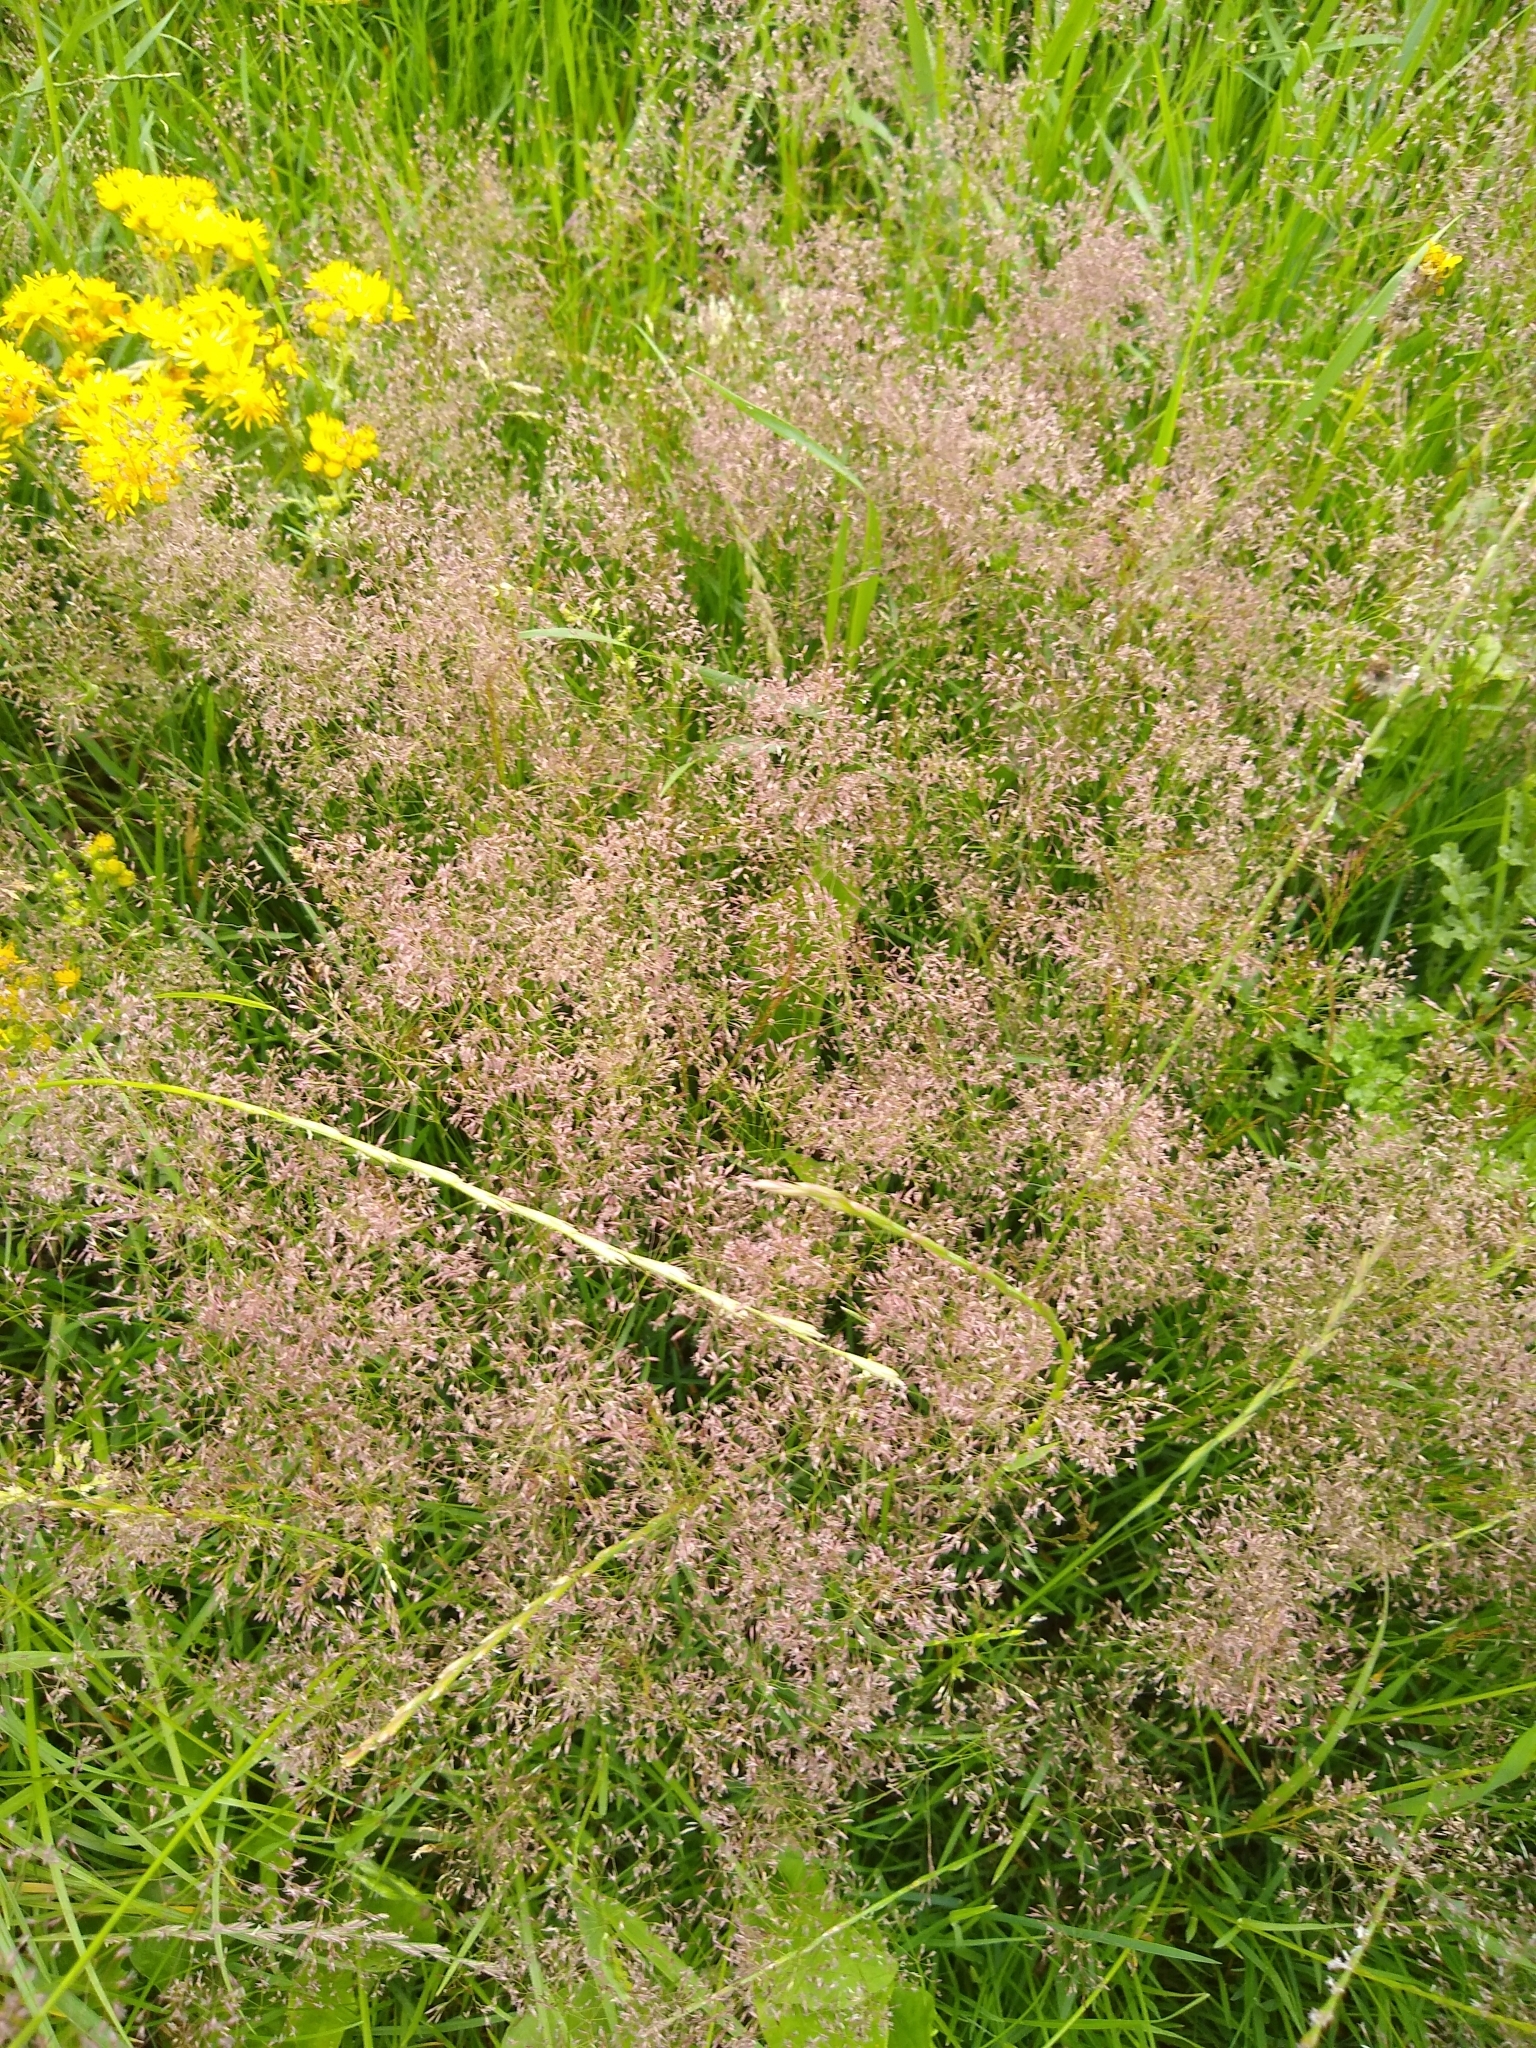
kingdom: Plantae
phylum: Tracheophyta
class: Liliopsida
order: Poales
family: Poaceae
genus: Agrostis
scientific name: Agrostis gigantea
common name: Black bent
